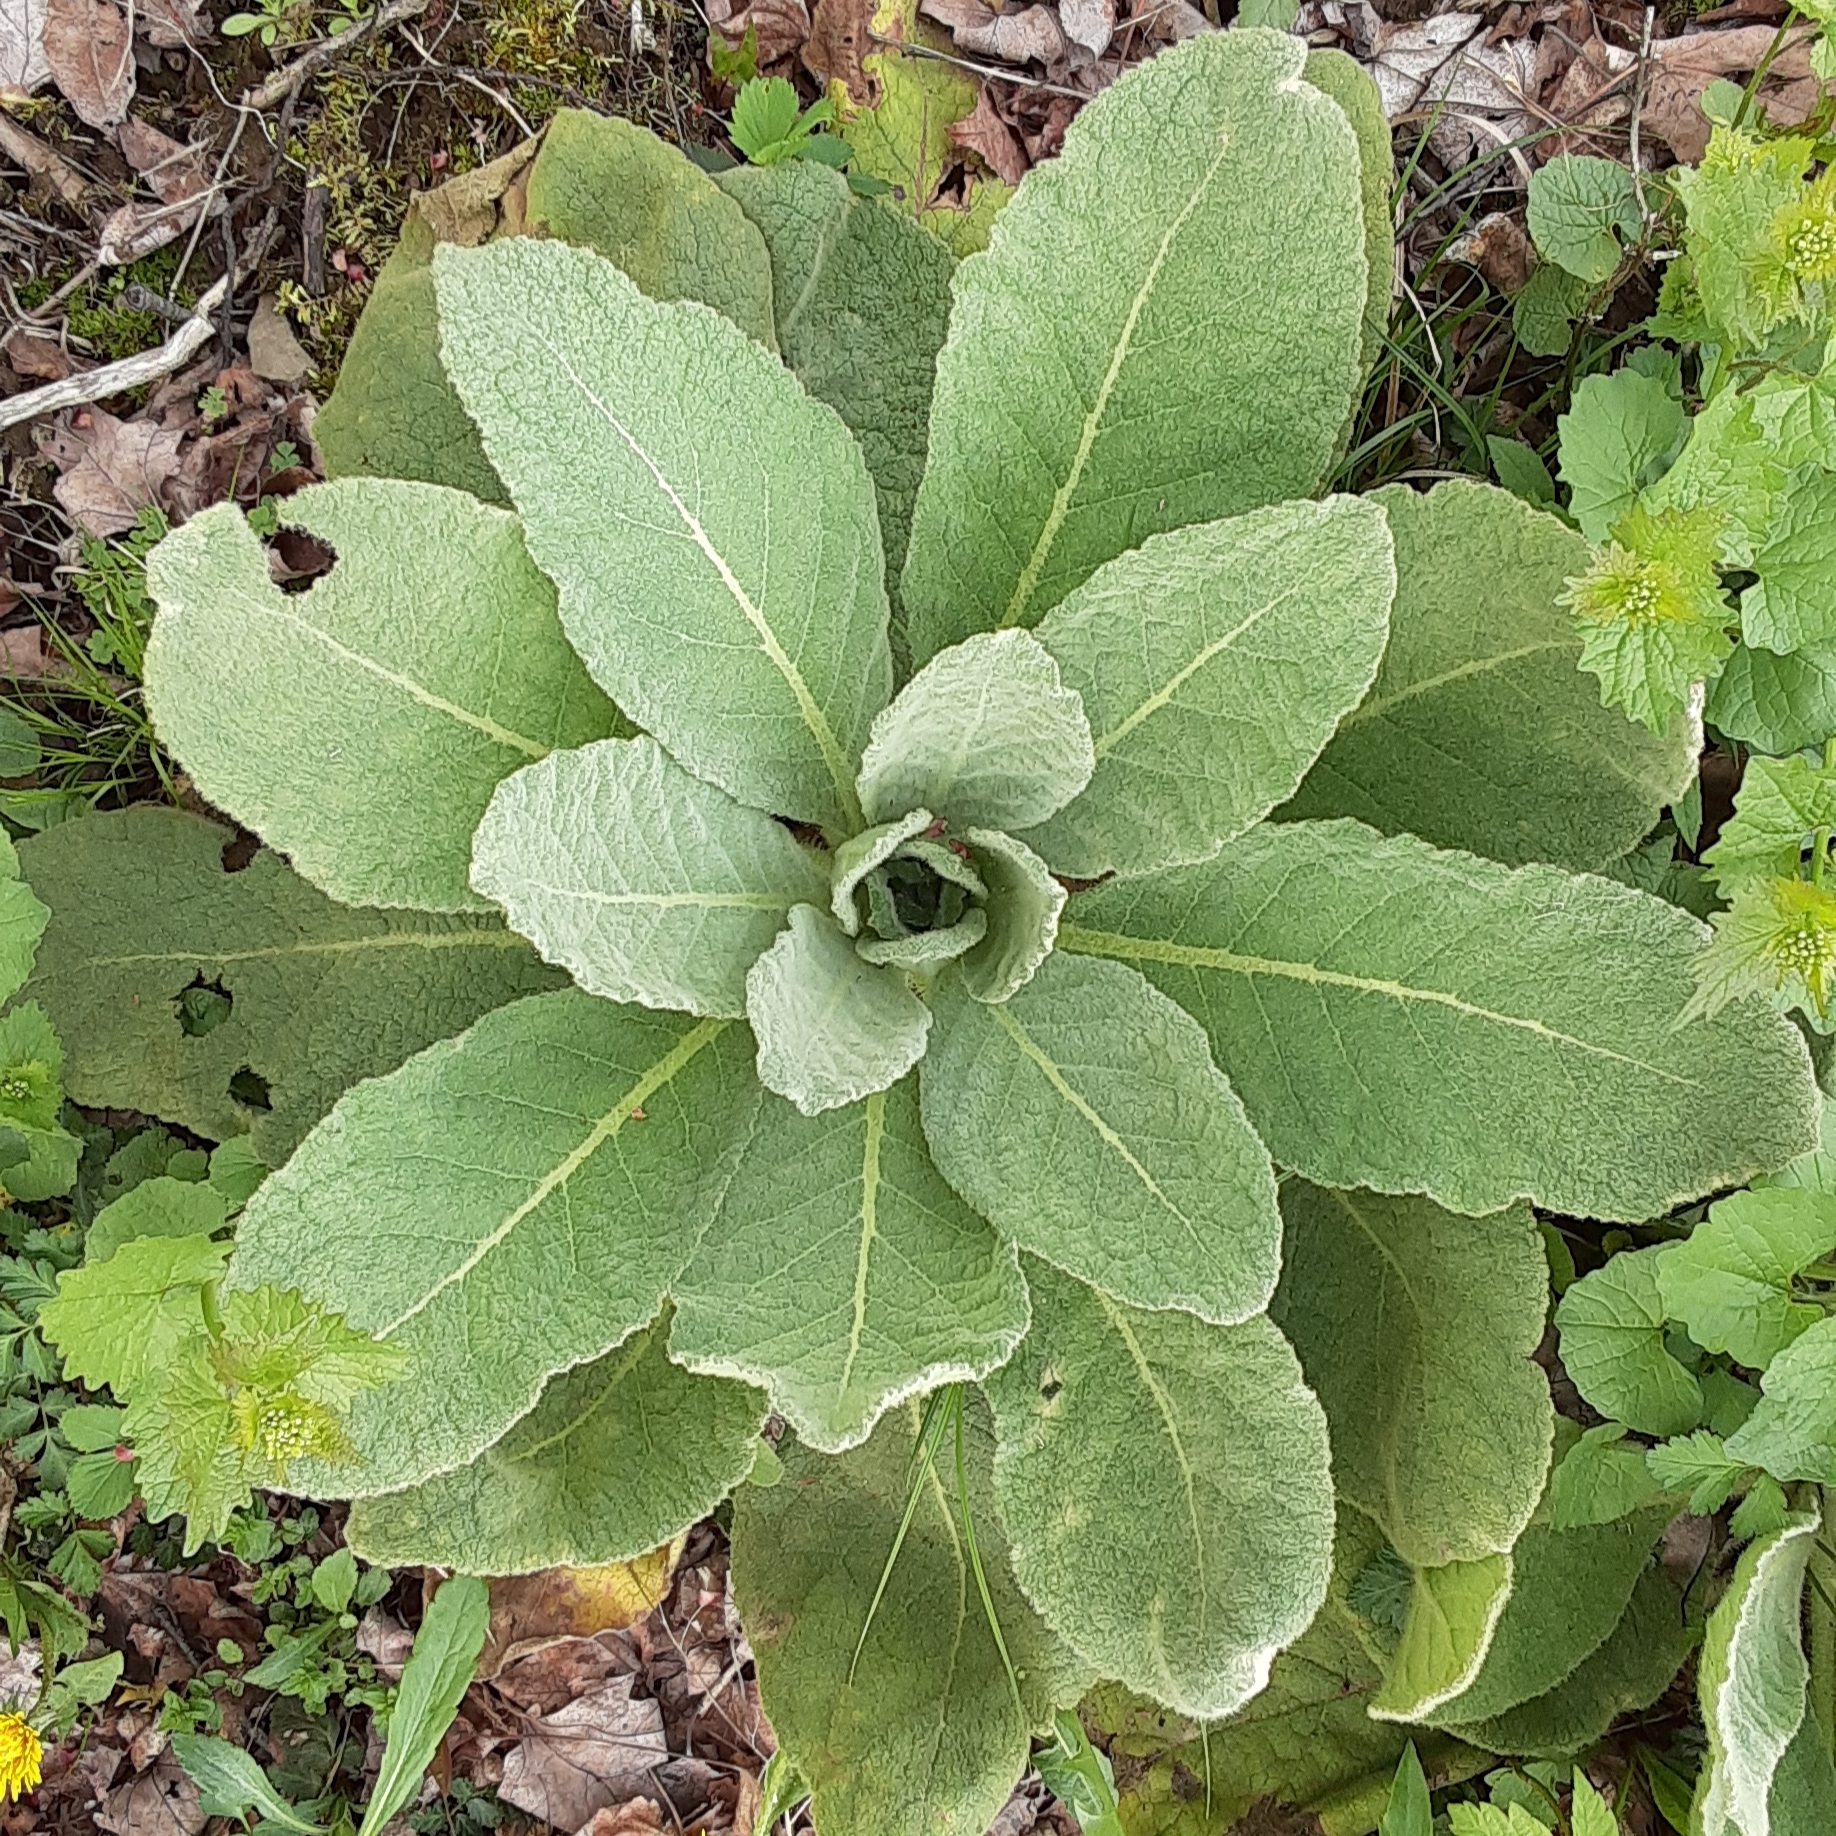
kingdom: Plantae
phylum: Tracheophyta
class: Magnoliopsida
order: Lamiales
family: Scrophulariaceae
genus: Verbascum
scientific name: Verbascum thapsus
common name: Common mullein
